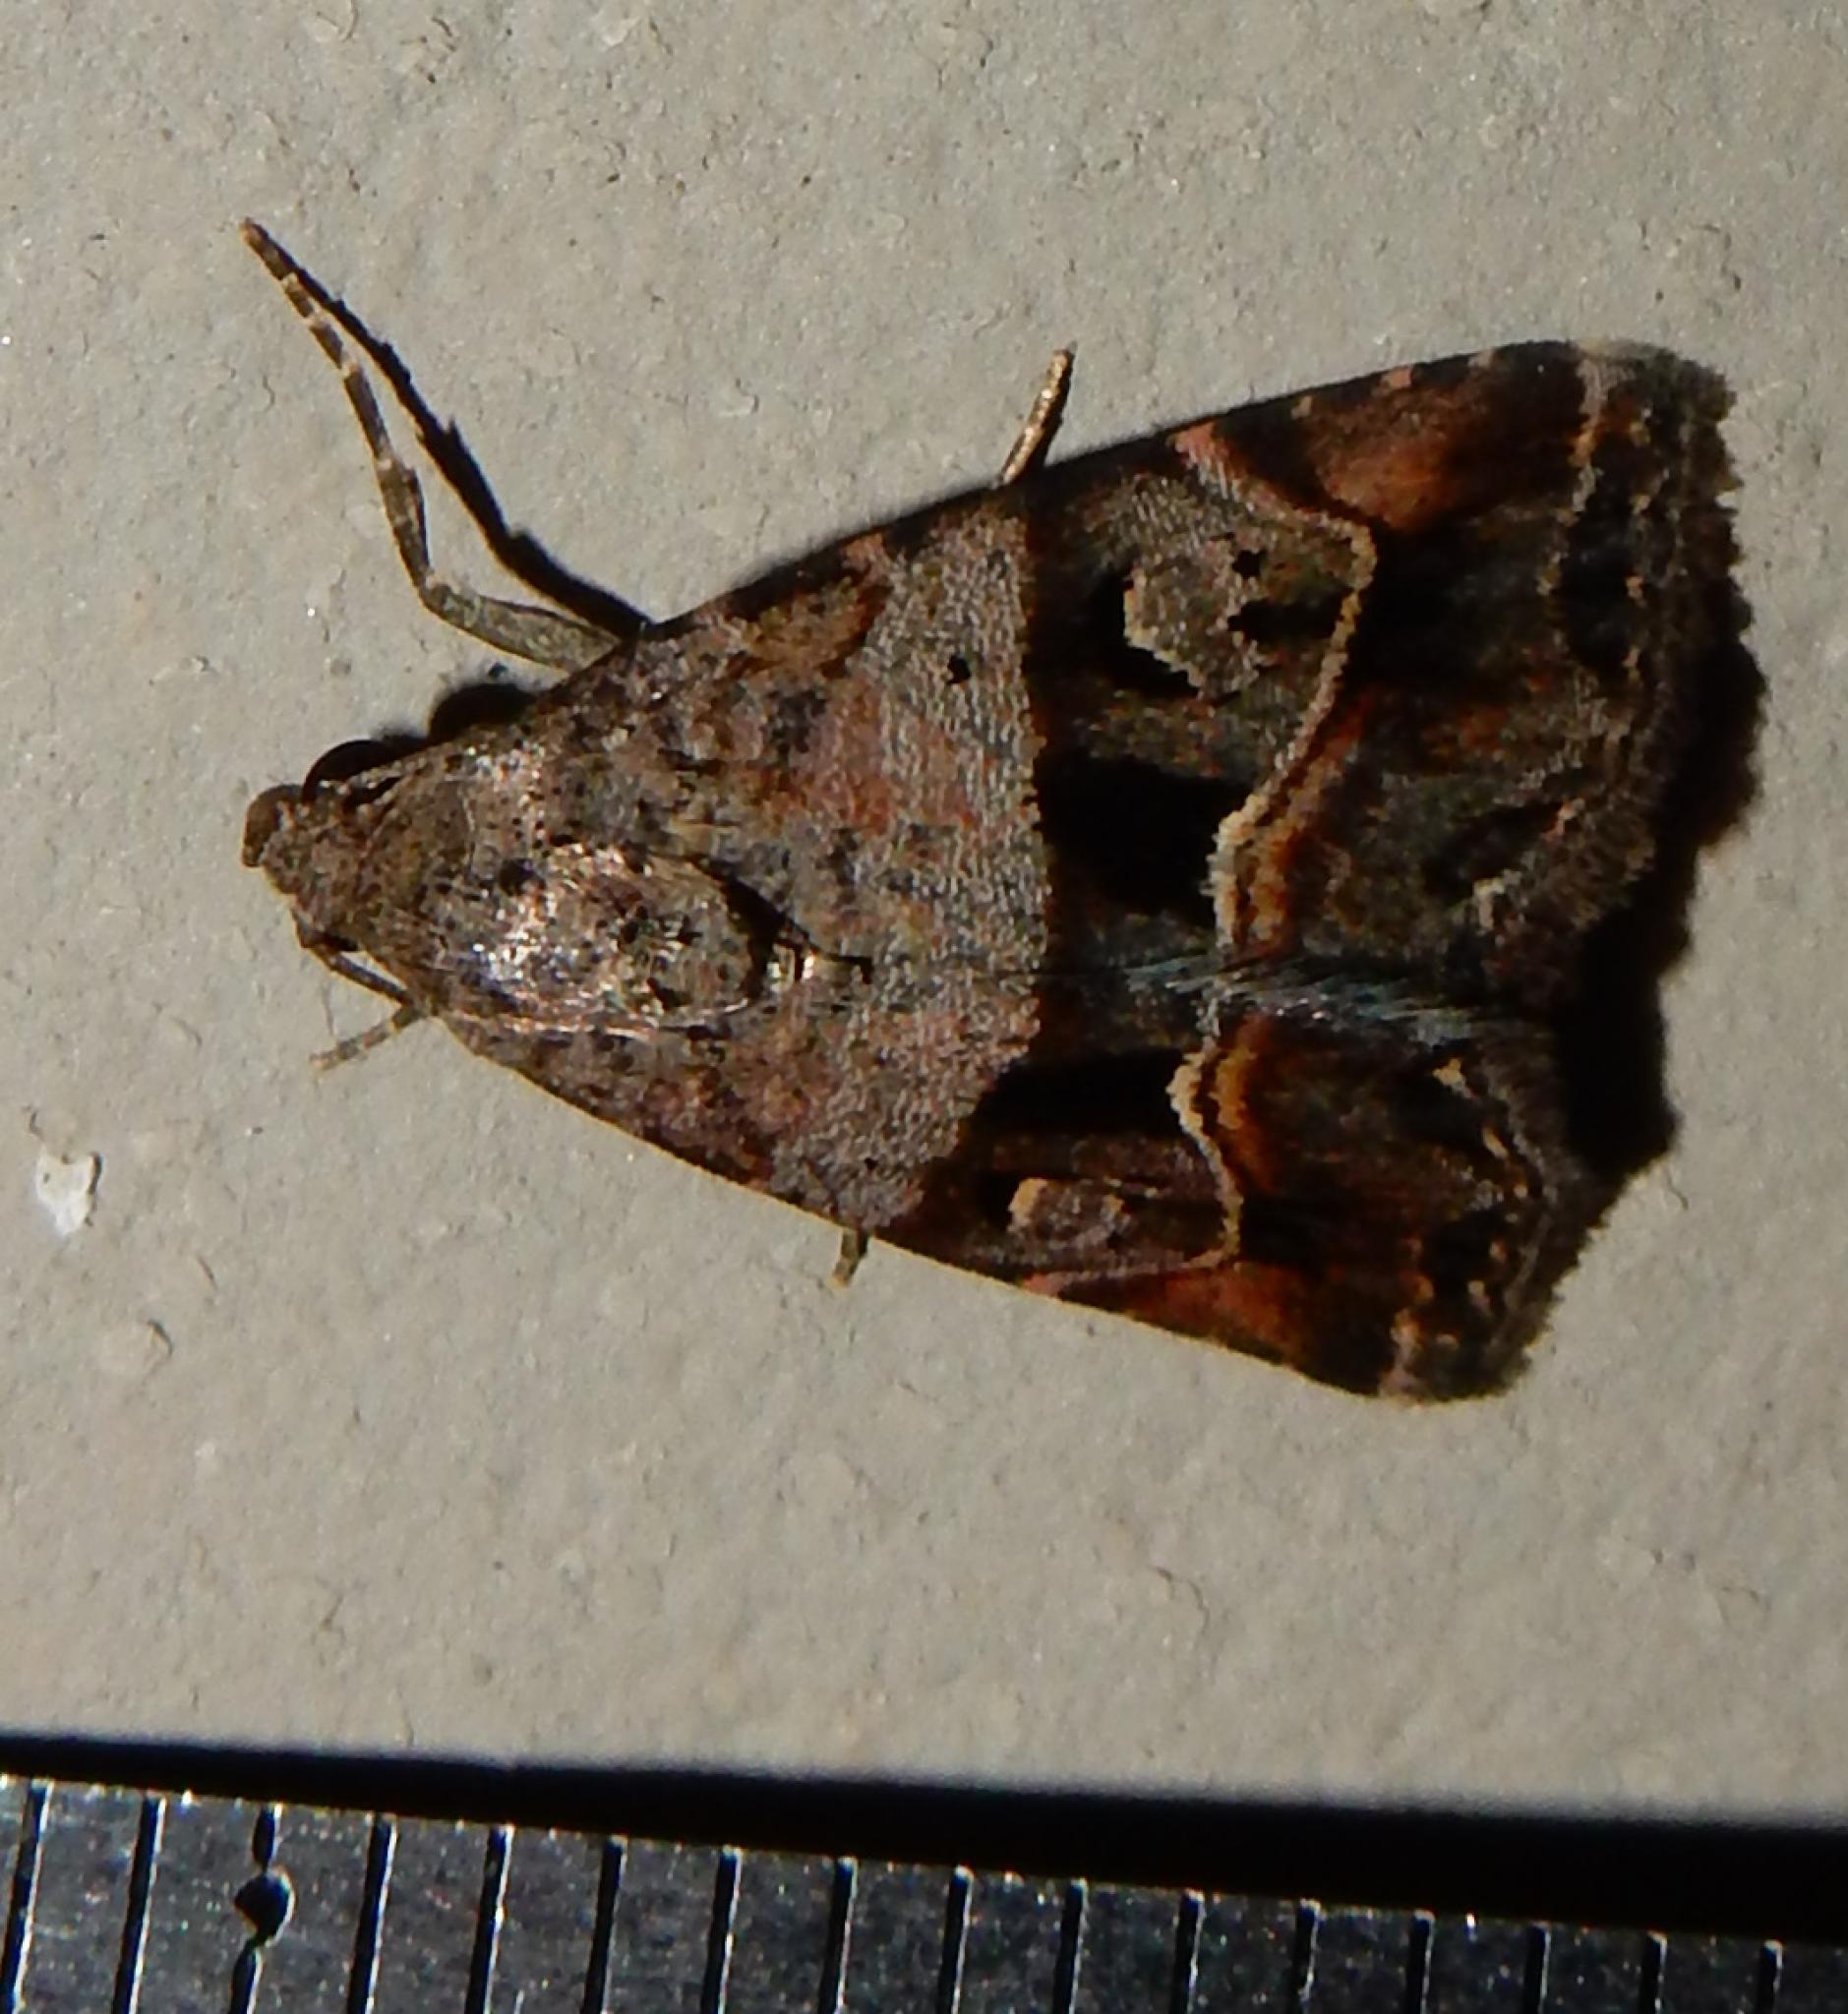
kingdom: Animalia
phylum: Arthropoda
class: Insecta
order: Lepidoptera
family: Noctuidae
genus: Ozarba
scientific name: Ozarba accincta
